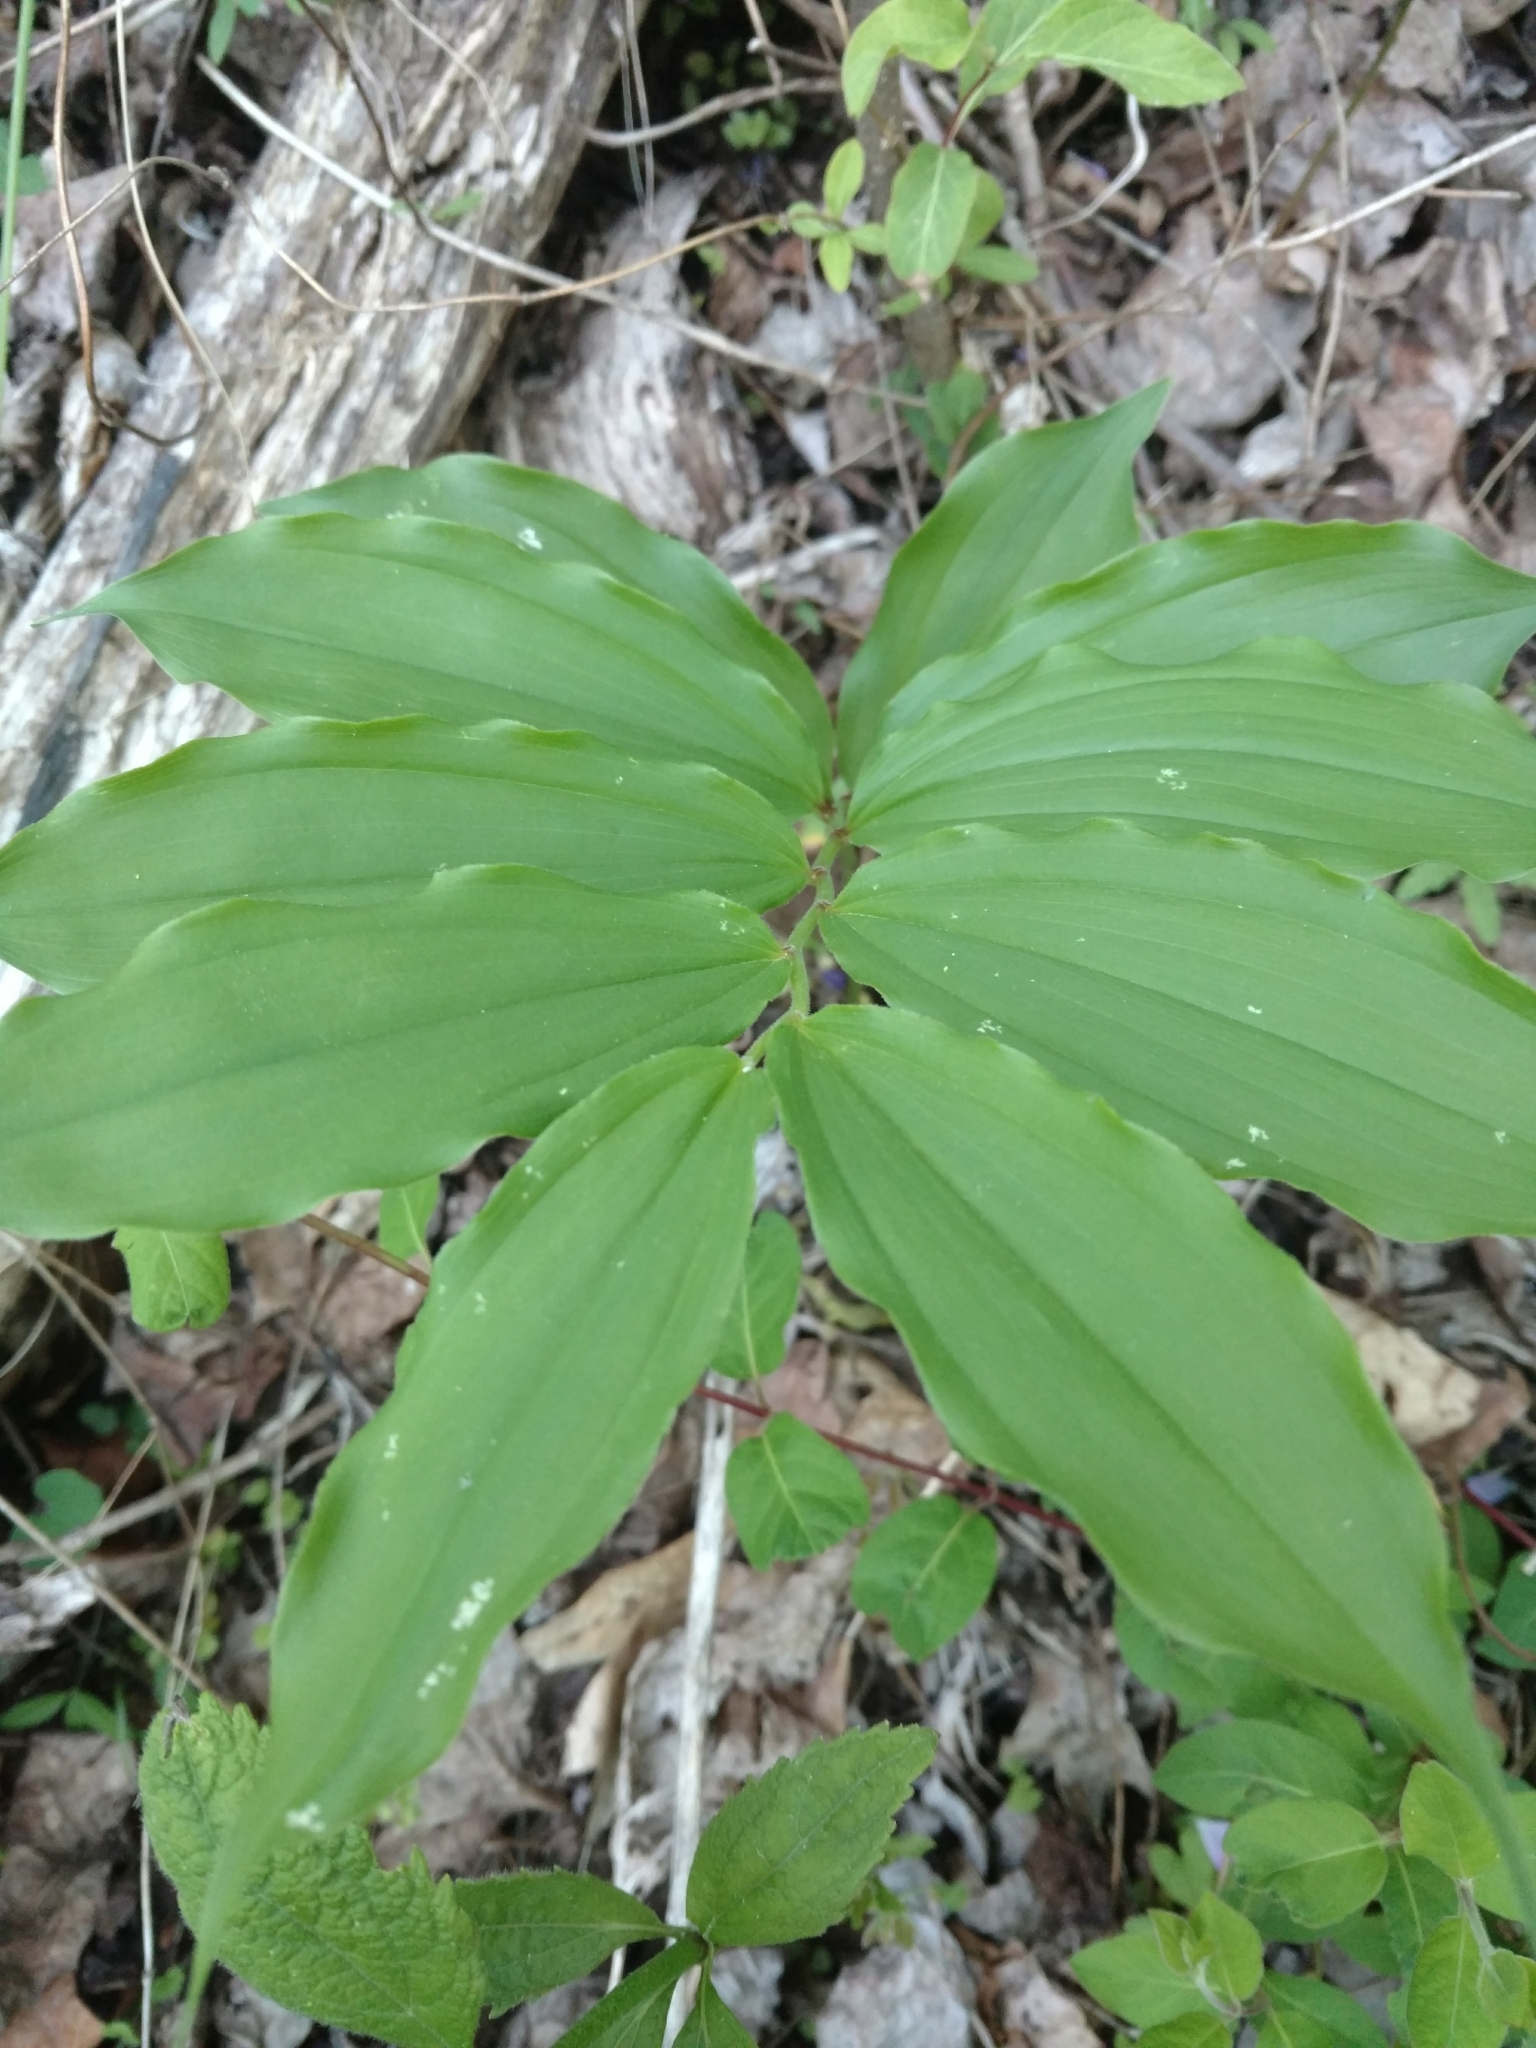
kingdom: Plantae
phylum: Tracheophyta
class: Liliopsida
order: Asparagales
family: Asparagaceae
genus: Maianthemum
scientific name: Maianthemum racemosum
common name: False spikenard
